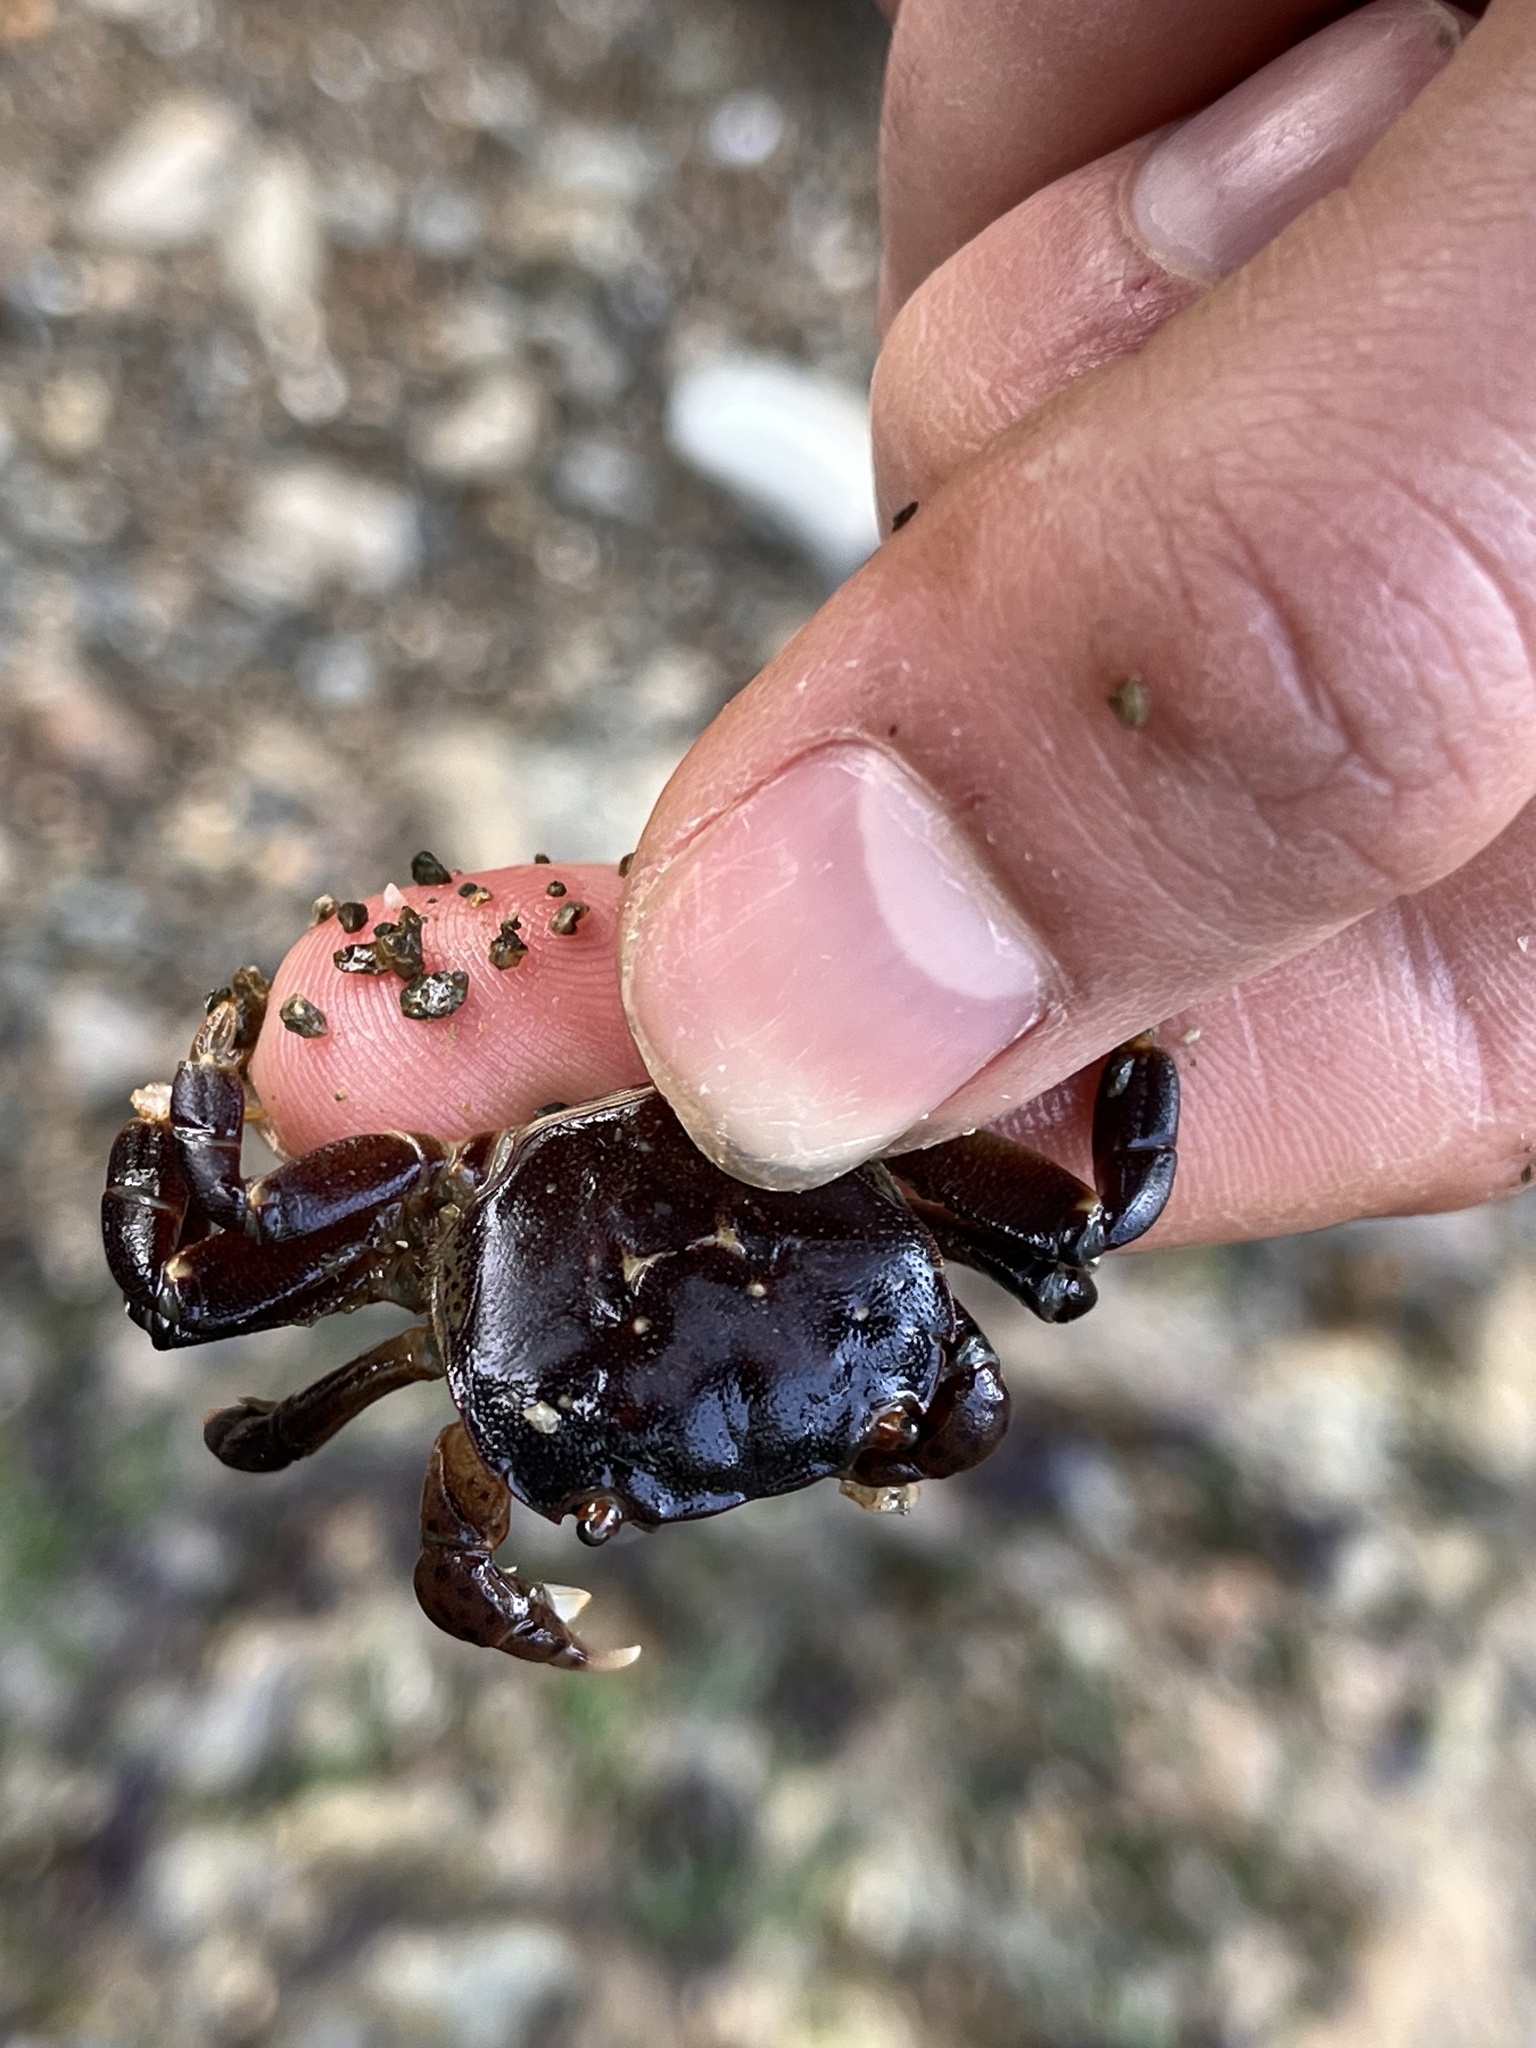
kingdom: Animalia
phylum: Arthropoda
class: Malacostraca
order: Decapoda
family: Varunidae
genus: Hemigrapsus
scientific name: Hemigrapsus nudus
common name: Purple shore crab
